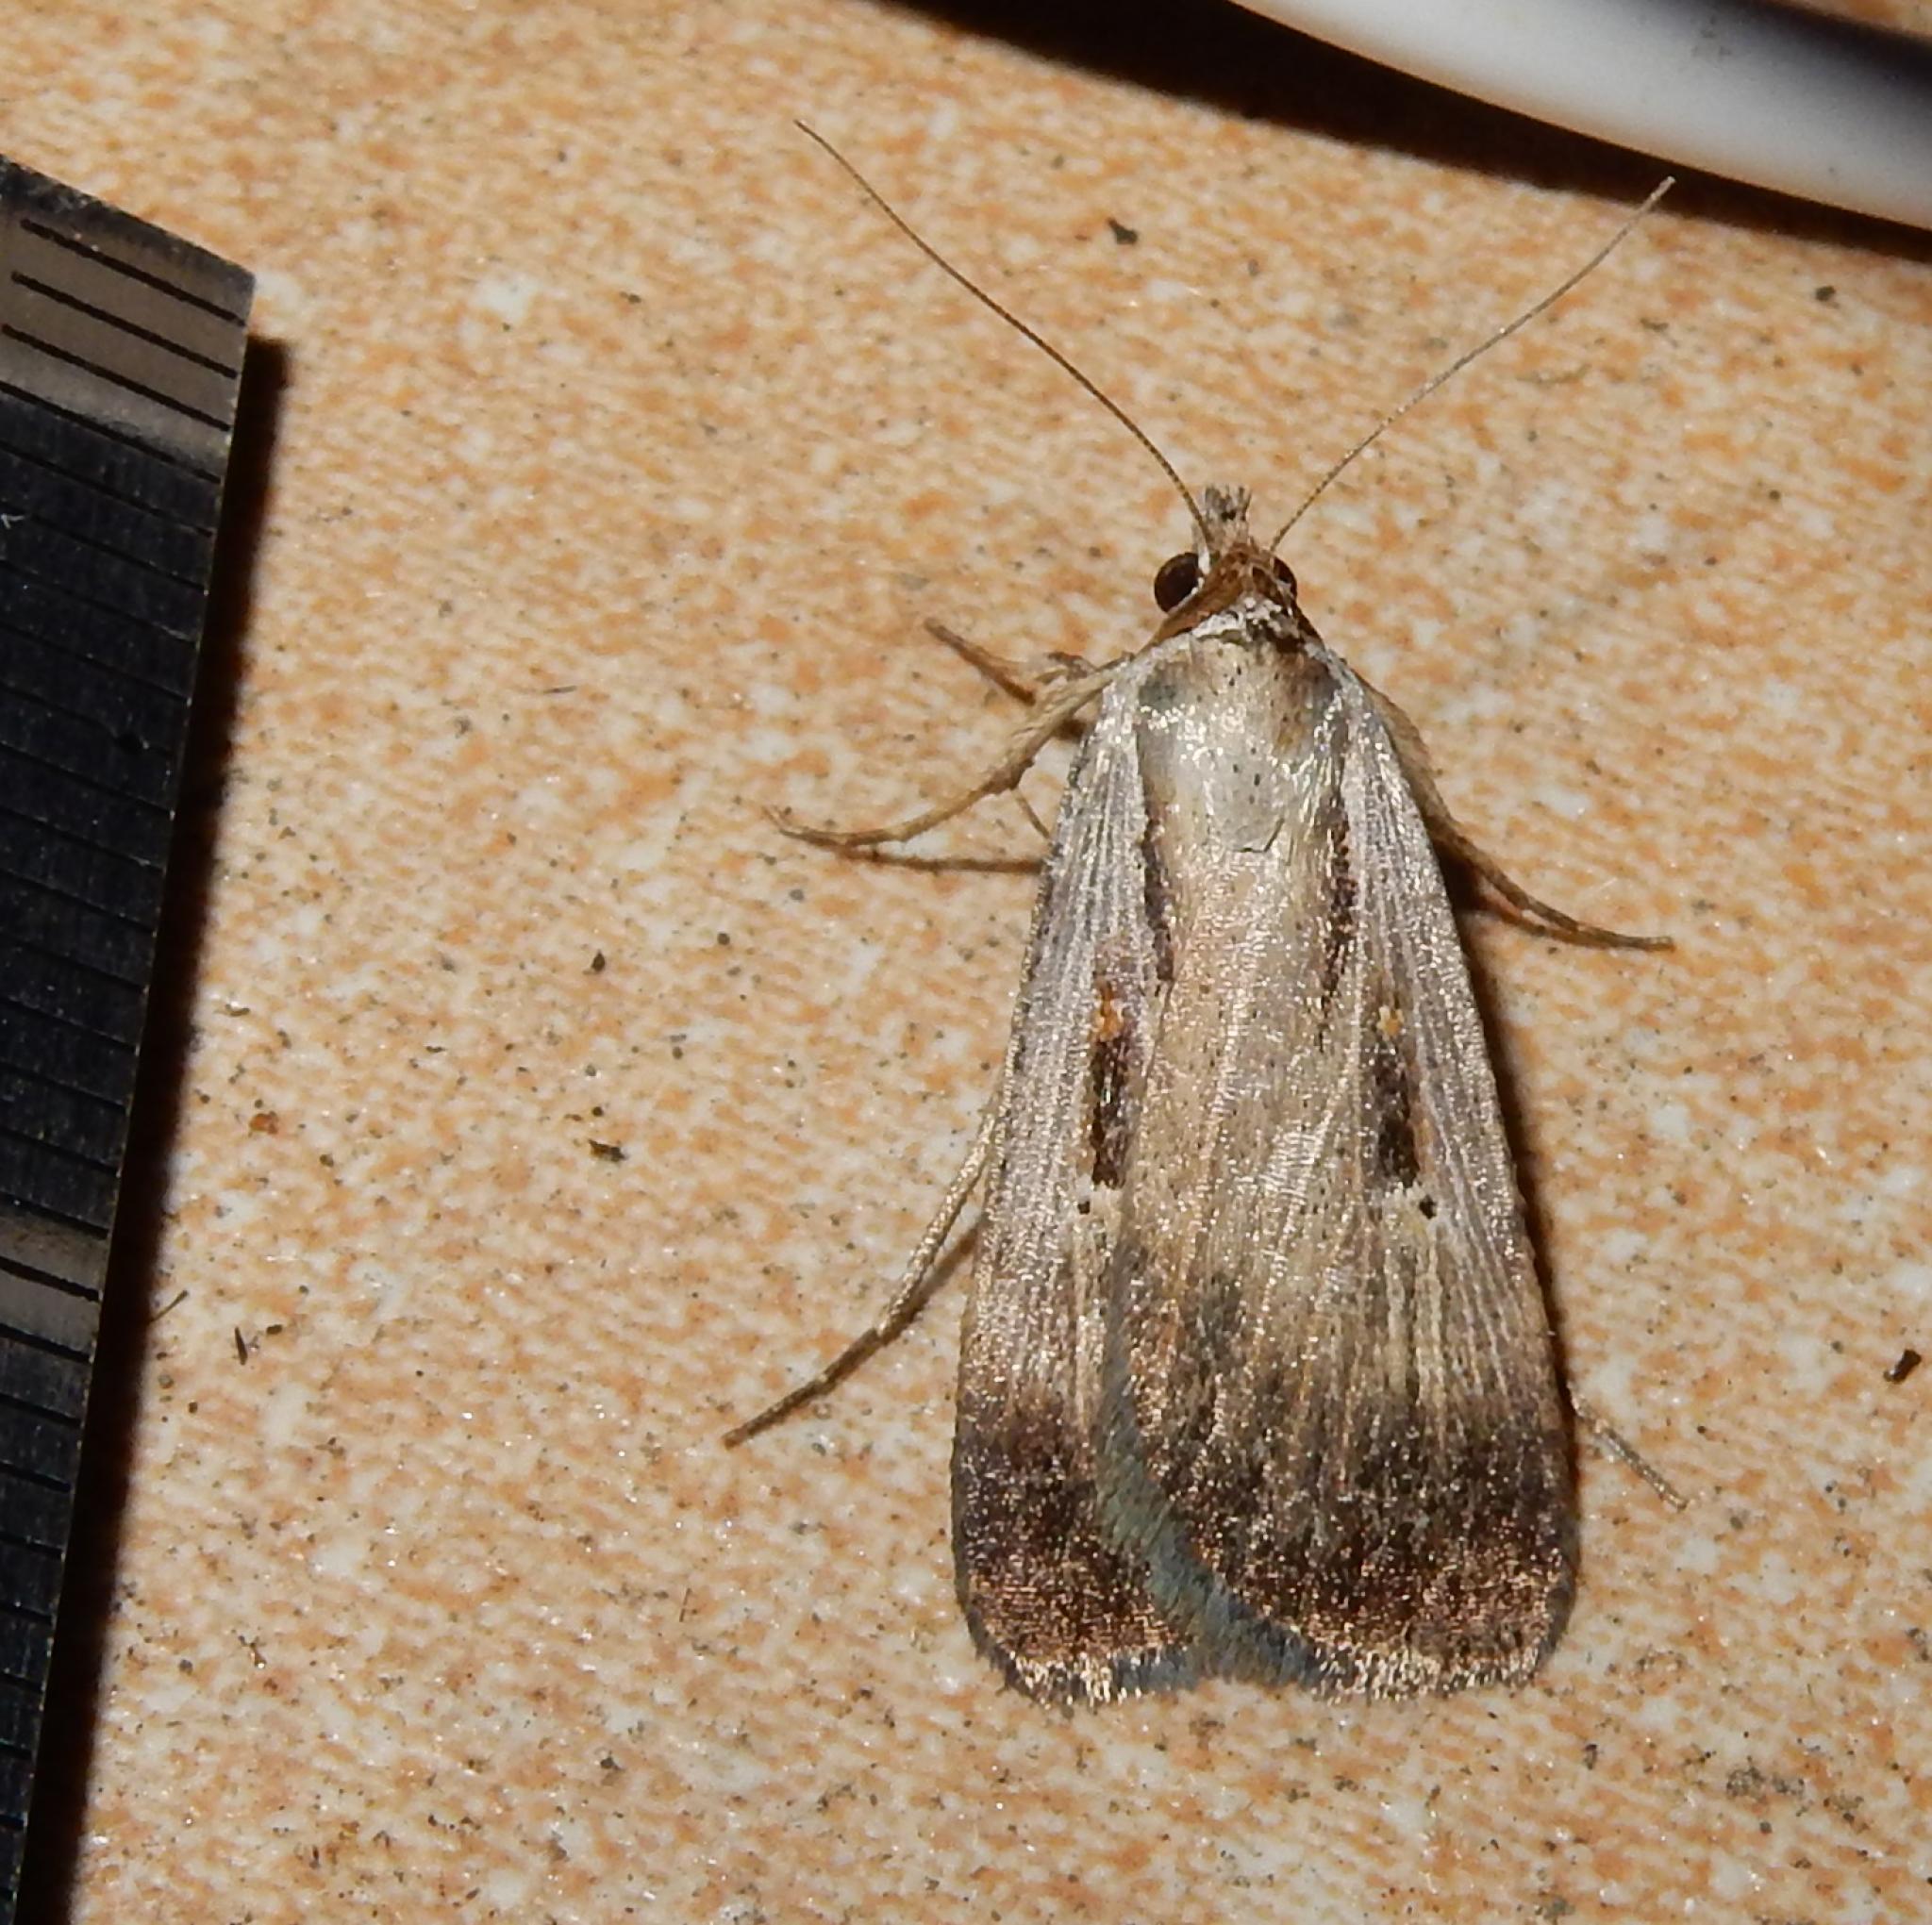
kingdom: Animalia
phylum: Arthropoda
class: Insecta
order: Lepidoptera
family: Noctuidae
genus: Tathorhynchus
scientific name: Tathorhynchus exsiccata
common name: Levant blackneck moth
